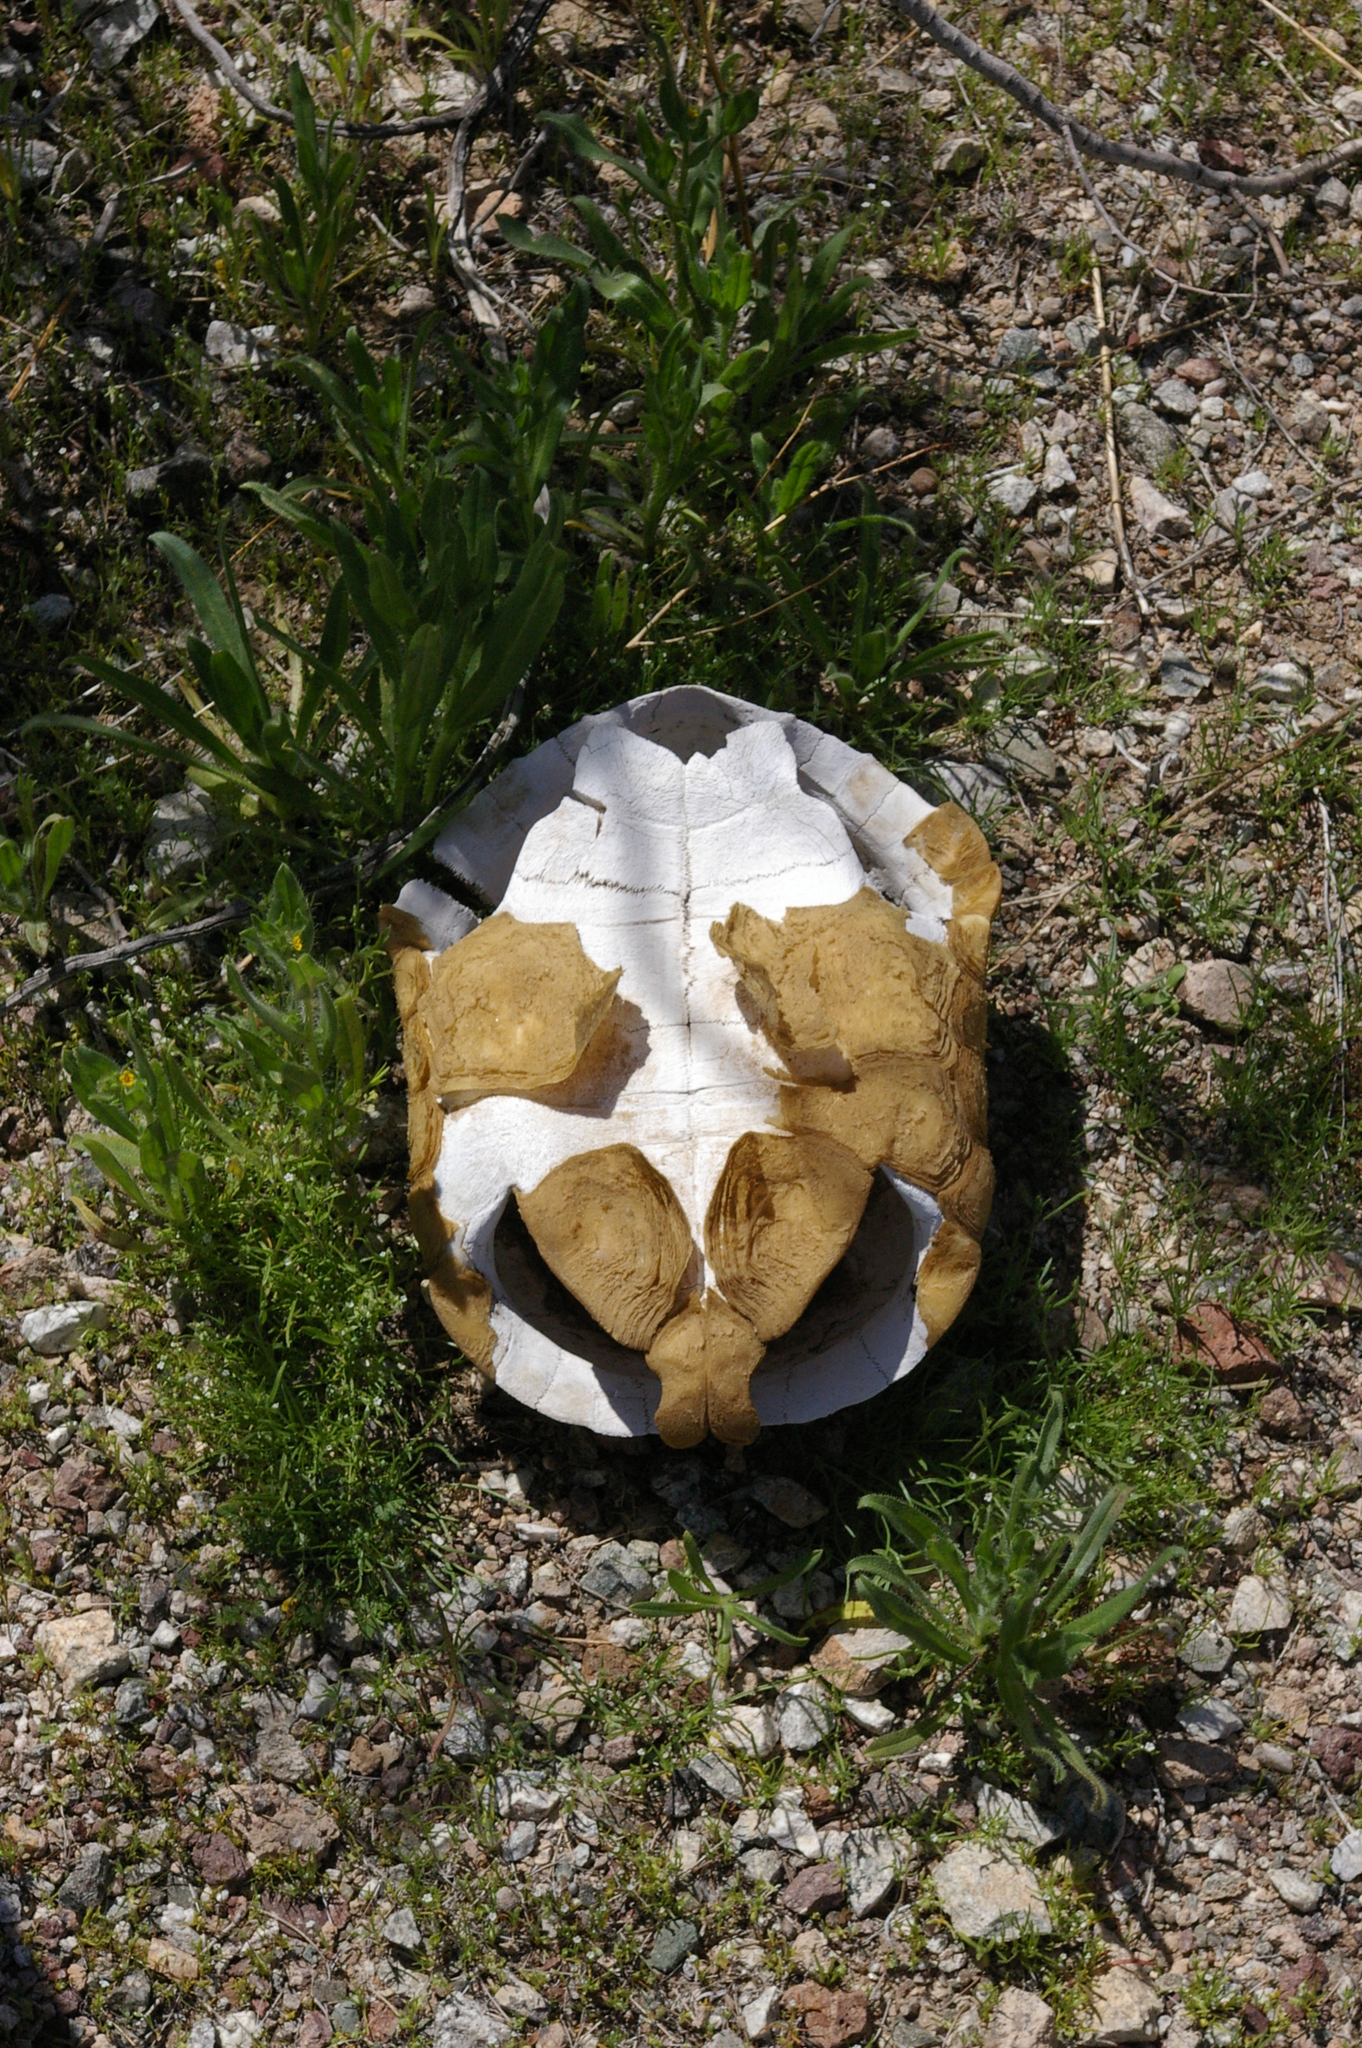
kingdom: Animalia
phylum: Chordata
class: Testudines
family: Testudinidae
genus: Gopherus
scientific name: Gopherus agassizii
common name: Mojave desert tortoise
